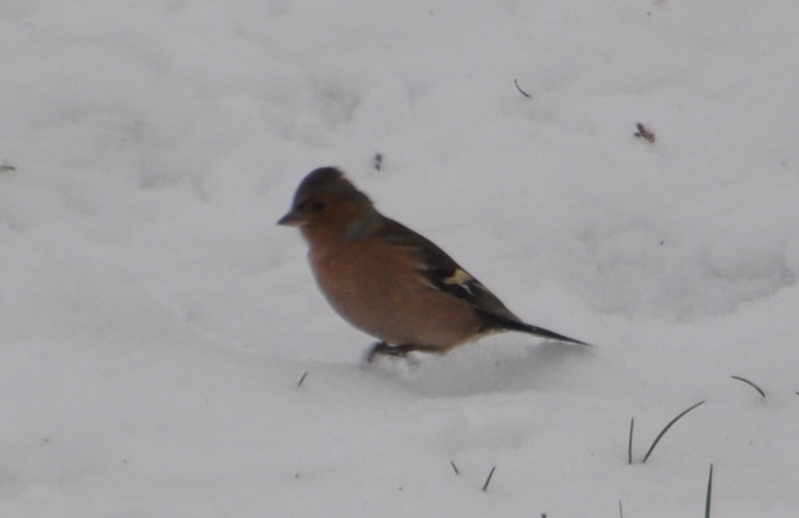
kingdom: Animalia
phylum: Chordata
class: Aves
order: Passeriformes
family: Fringillidae
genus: Fringilla
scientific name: Fringilla coelebs
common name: Common chaffinch
